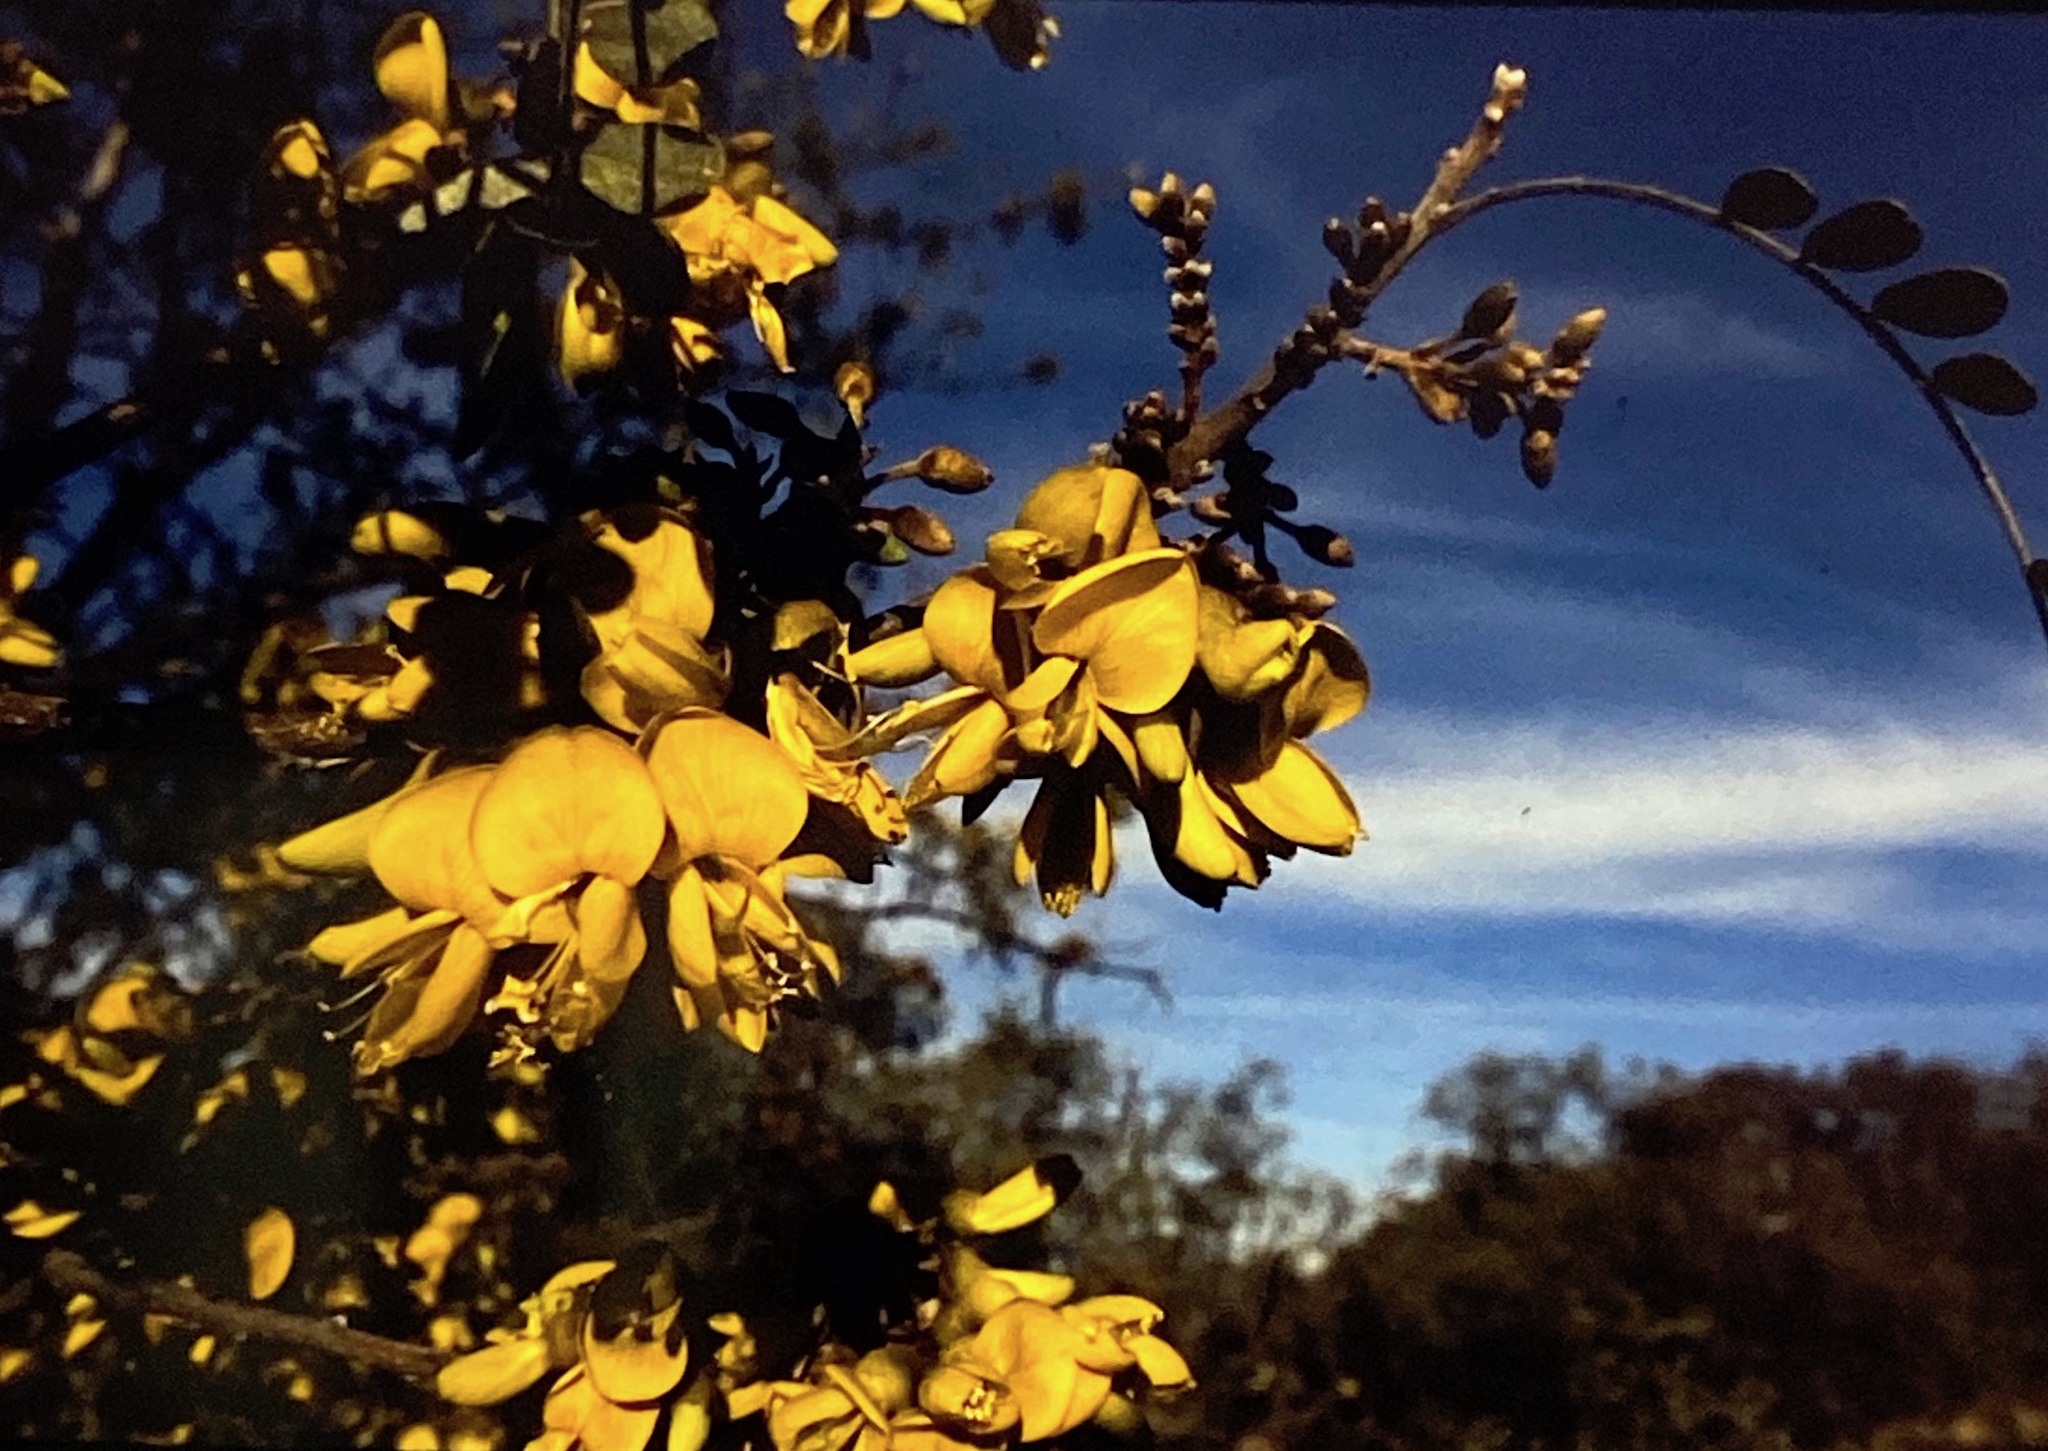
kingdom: Plantae
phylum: Tracheophyta
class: Magnoliopsida
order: Fabales
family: Fabaceae
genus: Sophora
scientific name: Sophora chrysophylla
